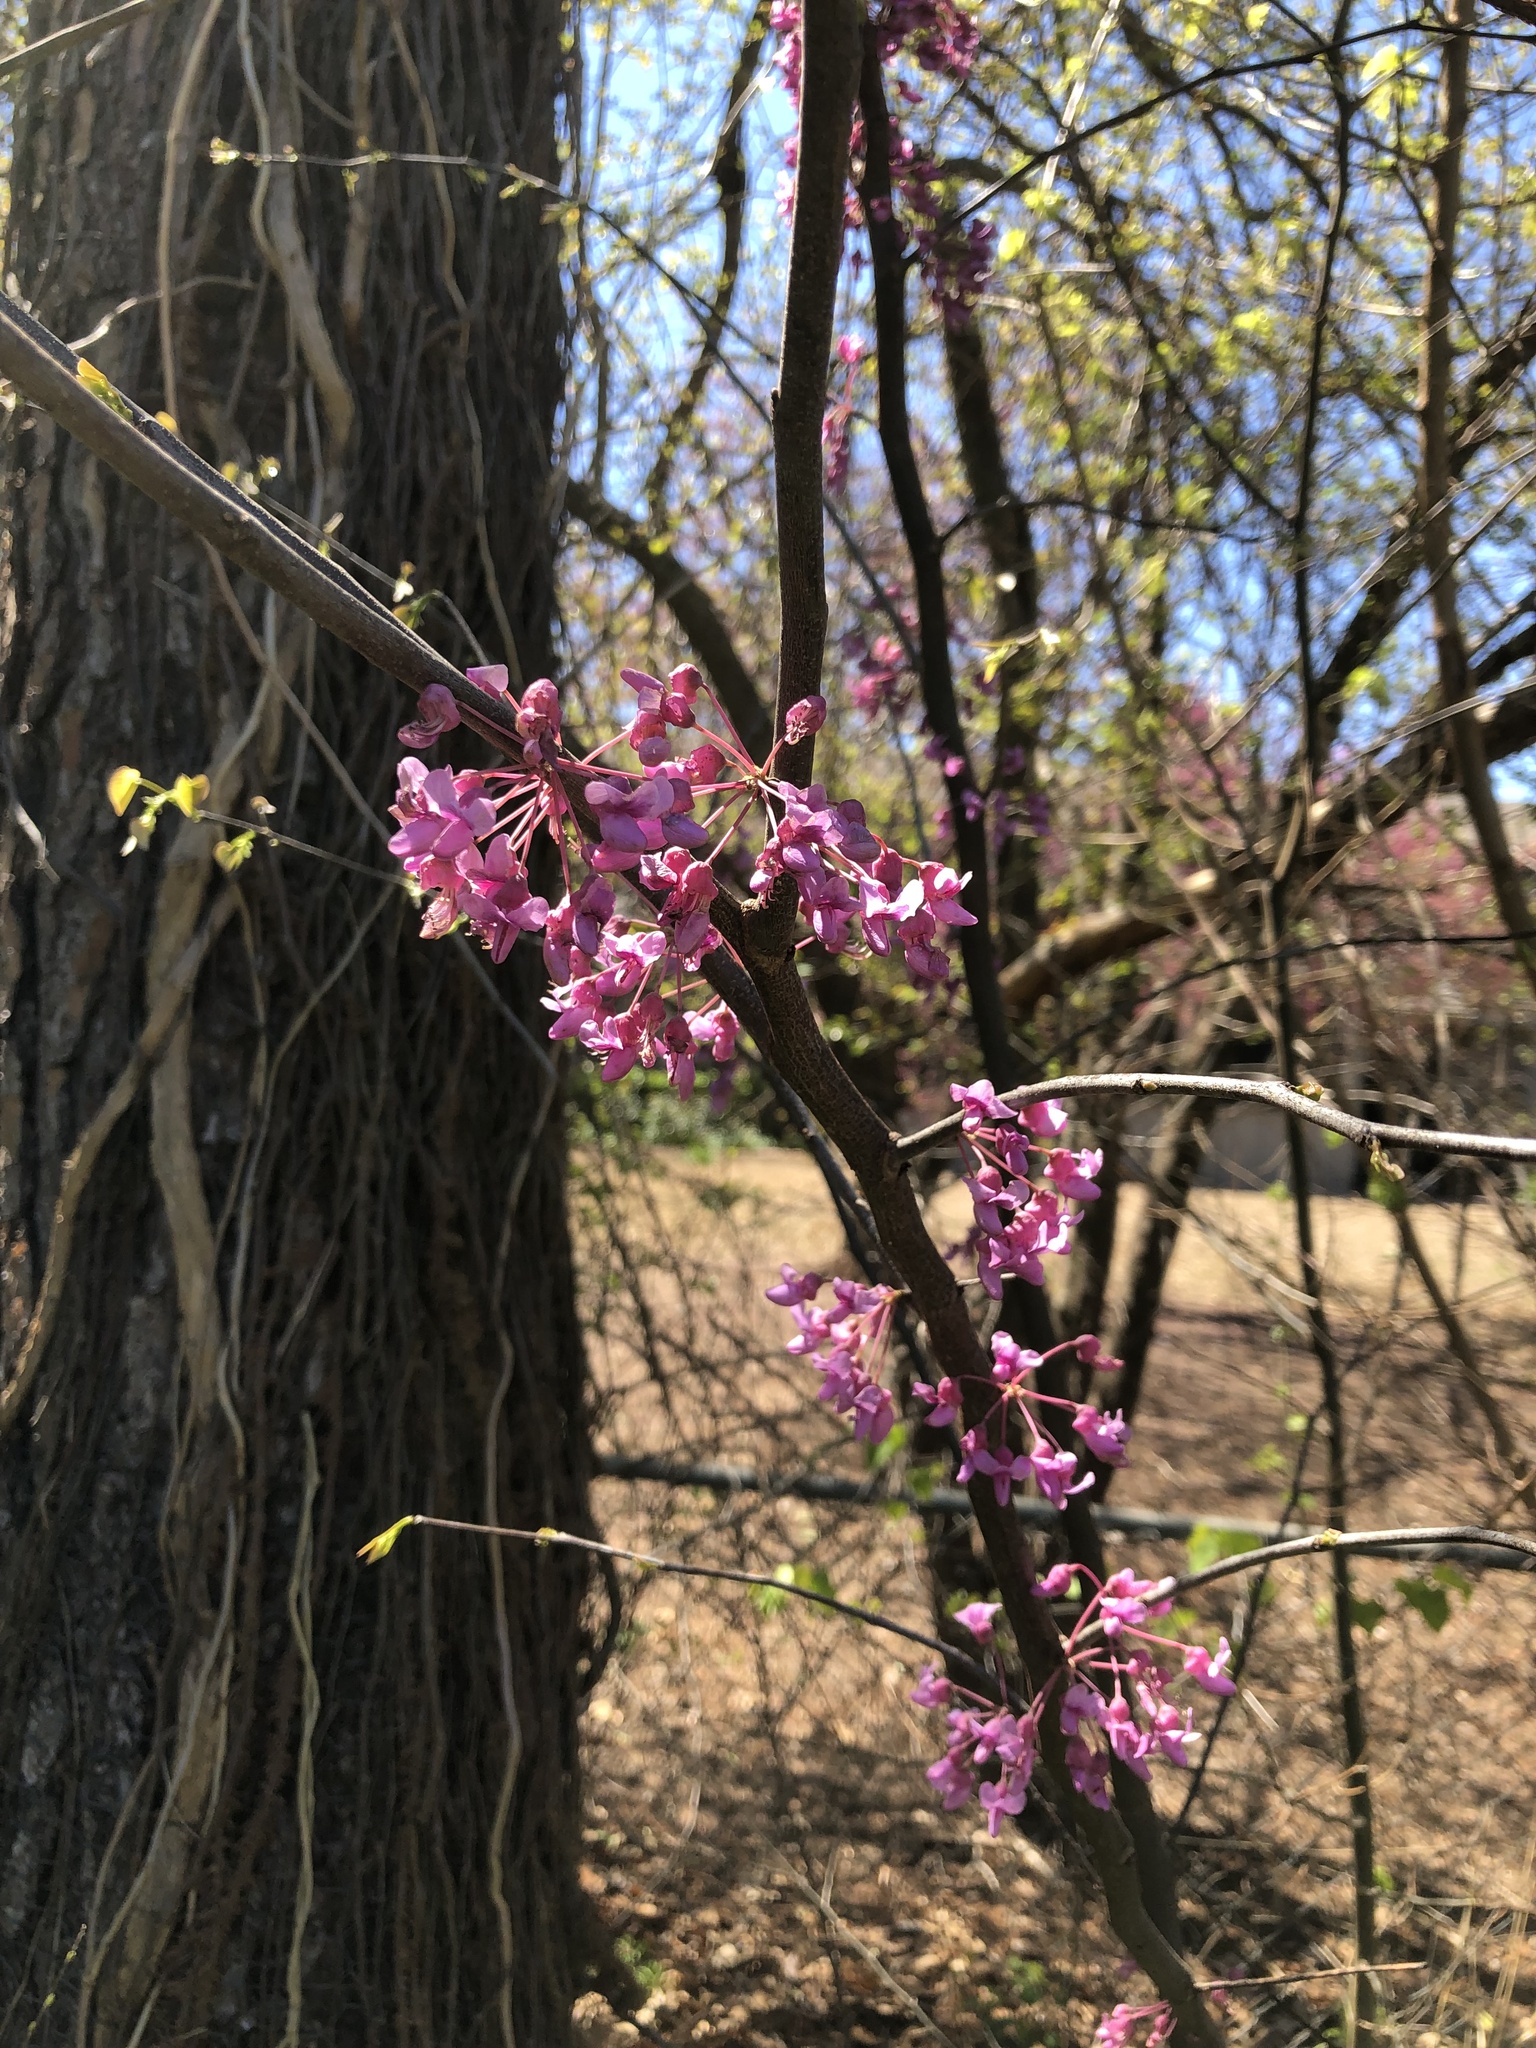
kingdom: Plantae
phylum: Tracheophyta
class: Magnoliopsida
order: Fabales
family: Fabaceae
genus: Cercis
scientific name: Cercis canadensis
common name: Eastern redbud
